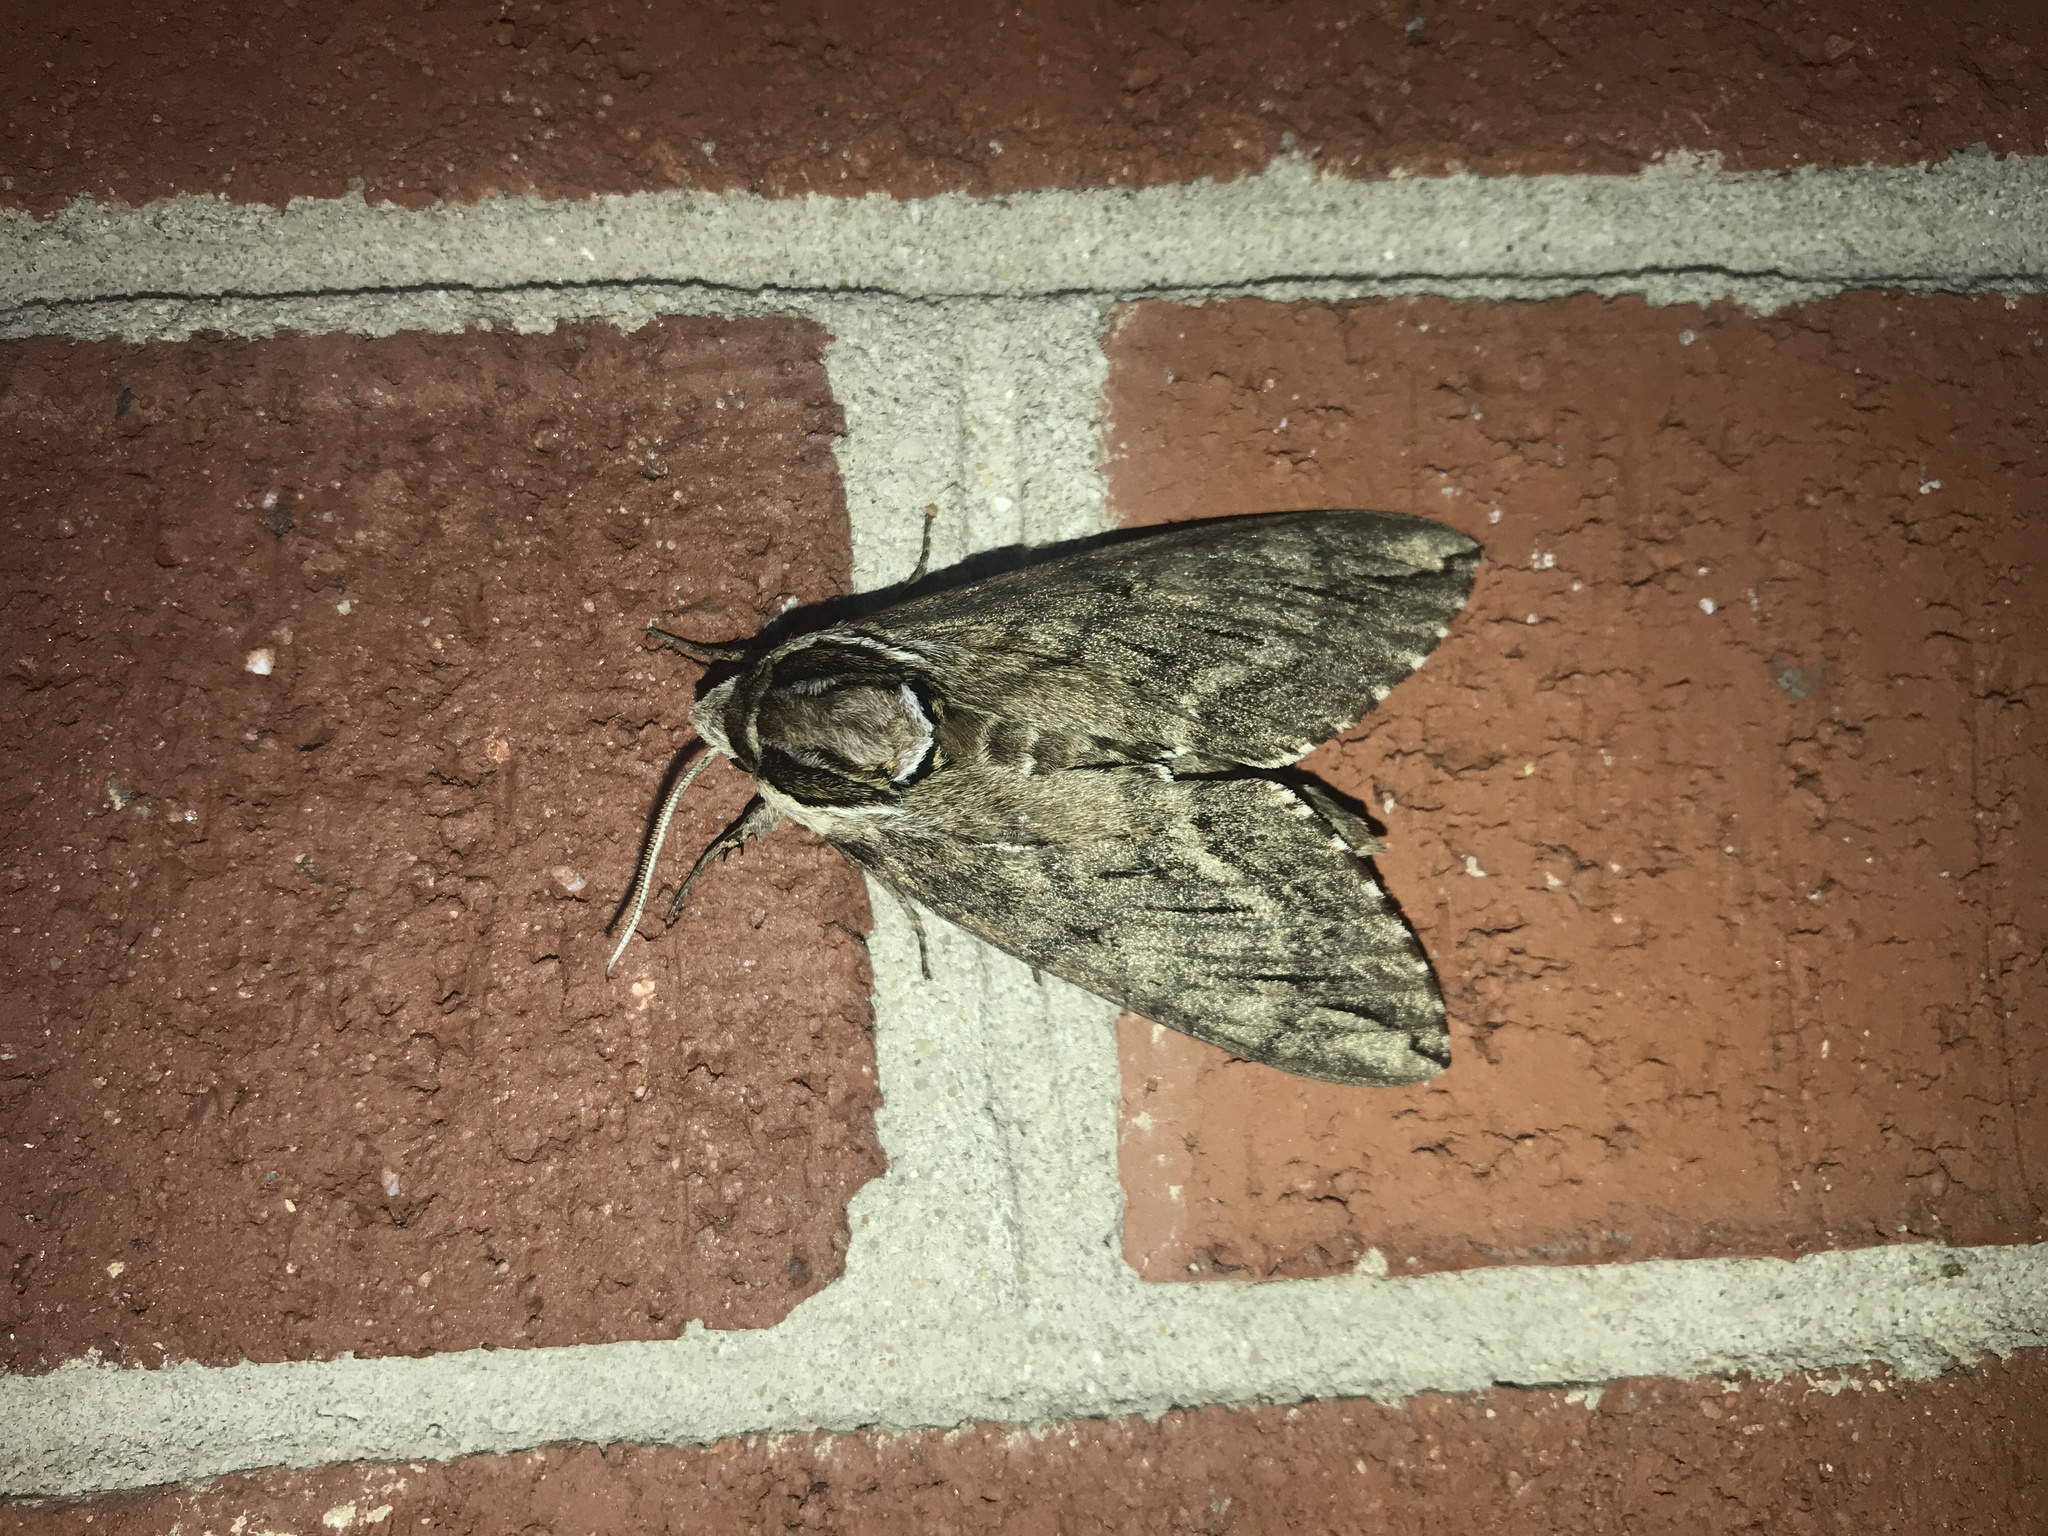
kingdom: Animalia
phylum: Arthropoda
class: Insecta
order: Lepidoptera
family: Sphingidae
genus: Ceratomia
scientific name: Ceratomia catalpae
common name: Catalpa hornworm
